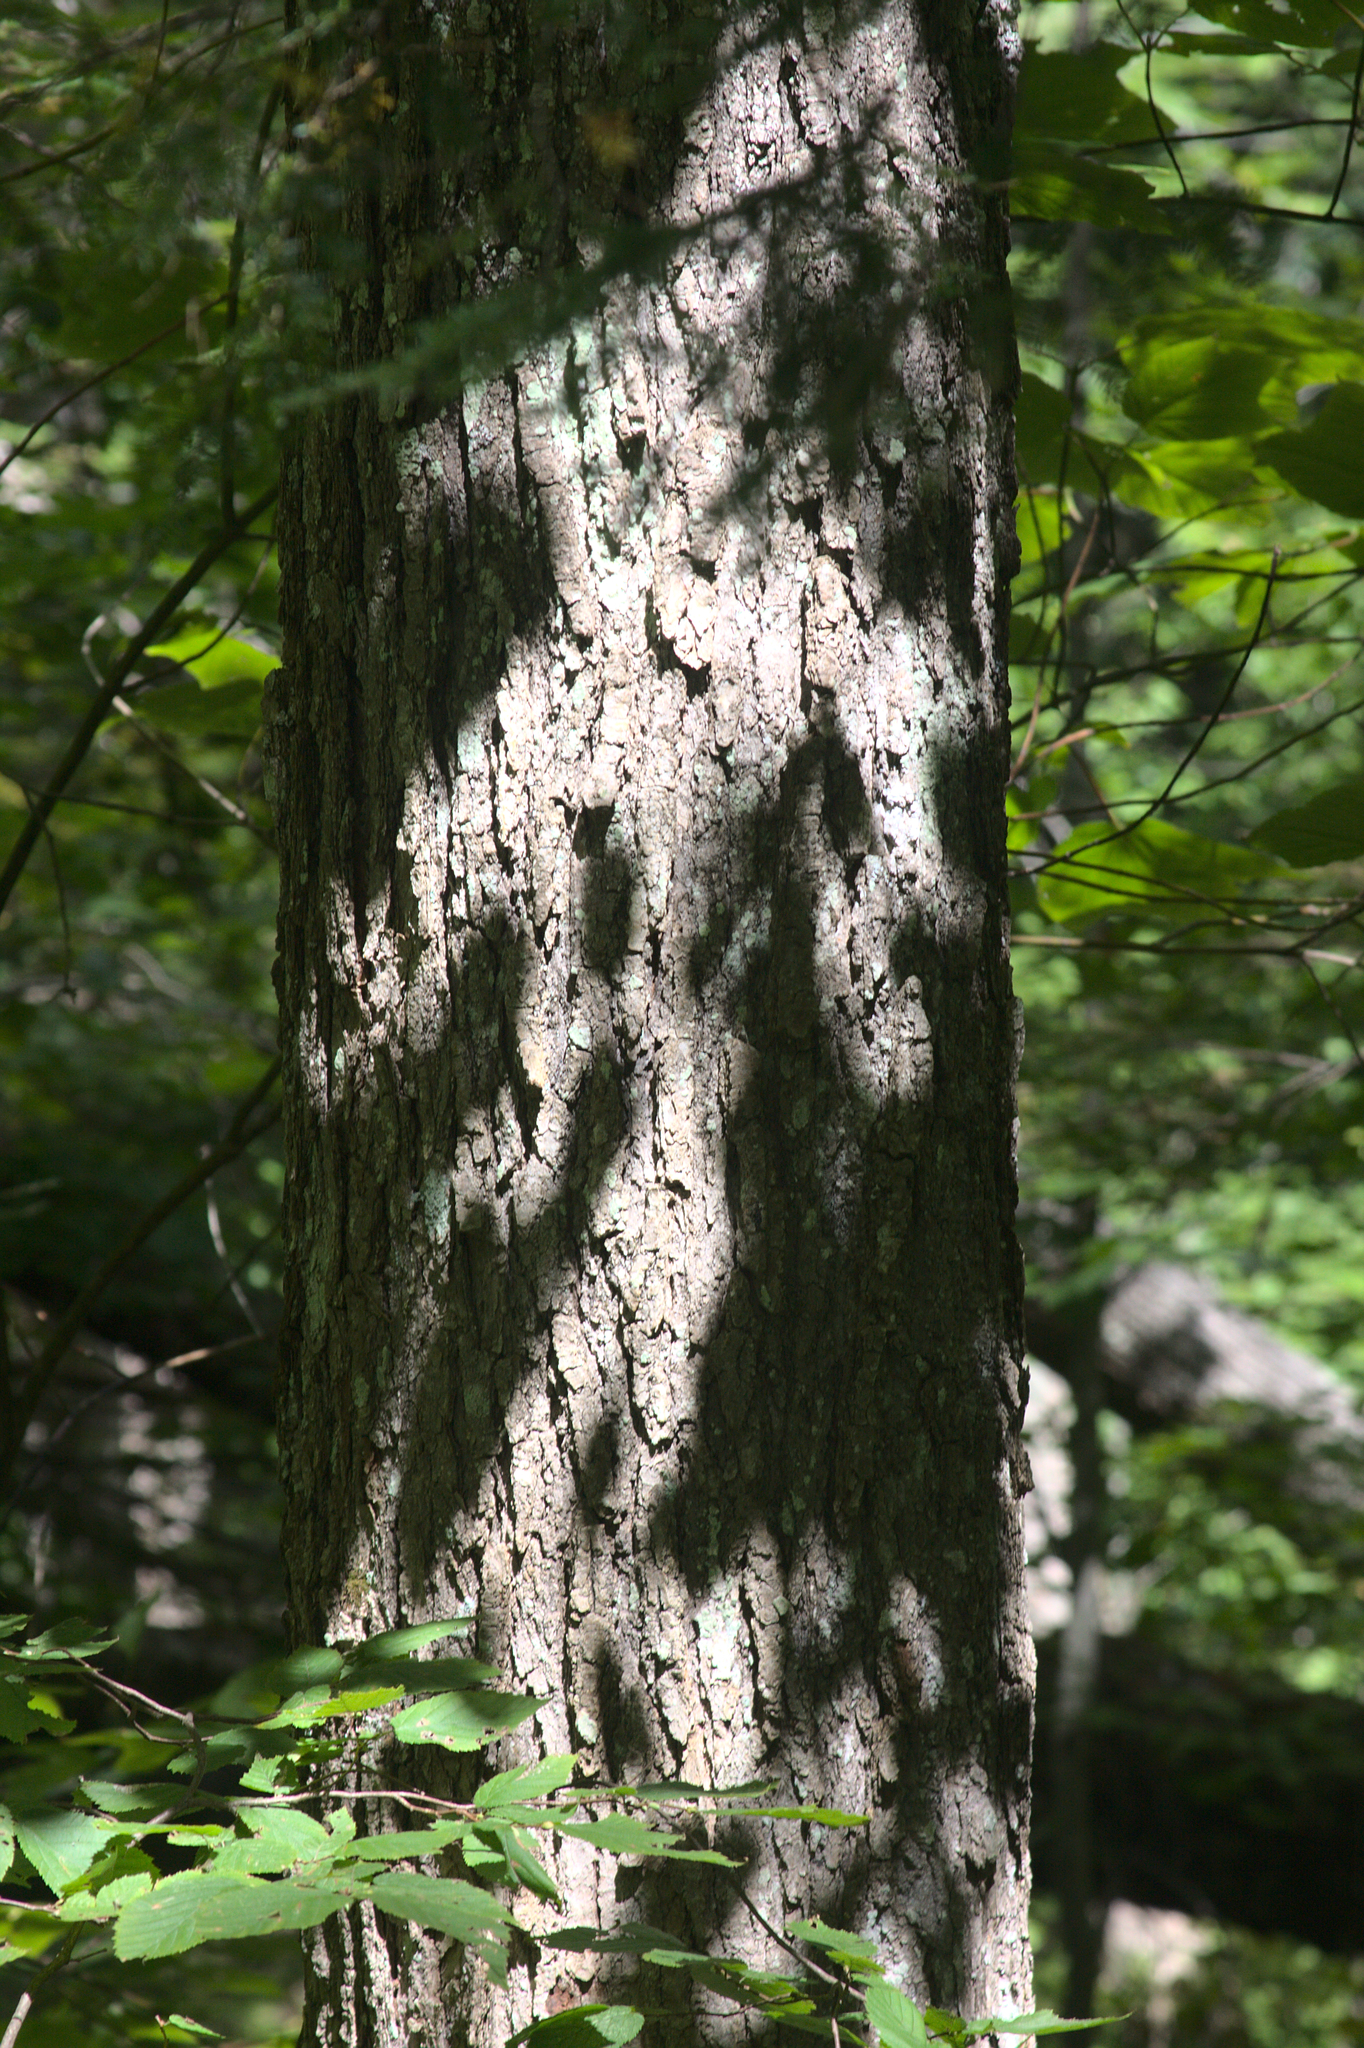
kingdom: Plantae
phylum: Tracheophyta
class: Magnoliopsida
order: Sapindales
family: Sapindaceae
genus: Acer
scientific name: Acer saccharum
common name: Sugar maple
